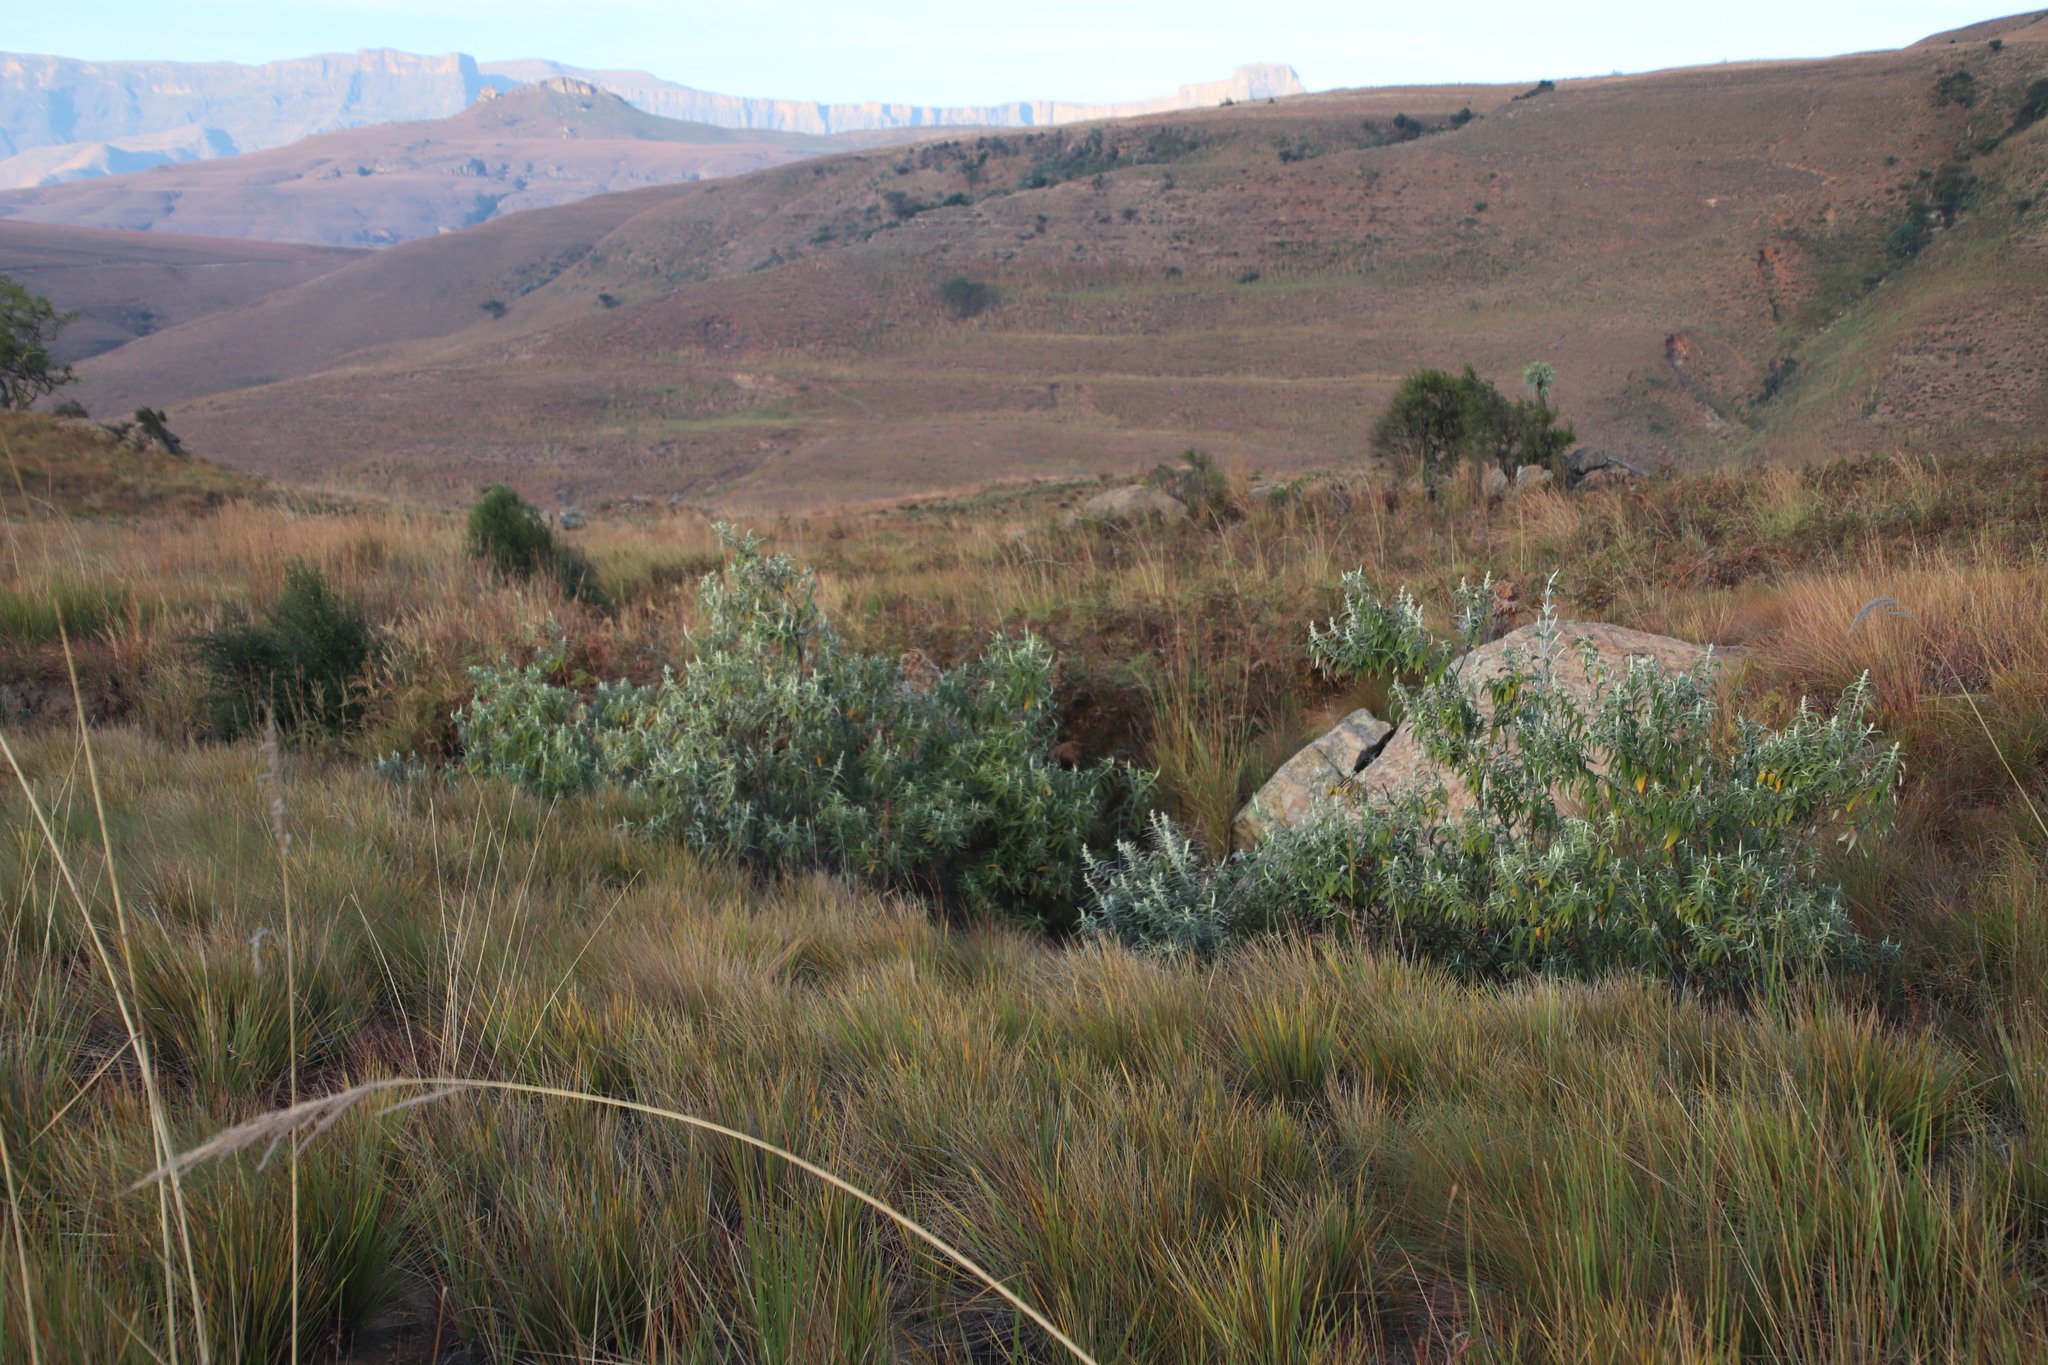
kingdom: Plantae
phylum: Tracheophyta
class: Magnoliopsida
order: Lamiales
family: Scrophulariaceae
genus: Buddleja
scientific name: Buddleja salviifolia
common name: Sagewood
